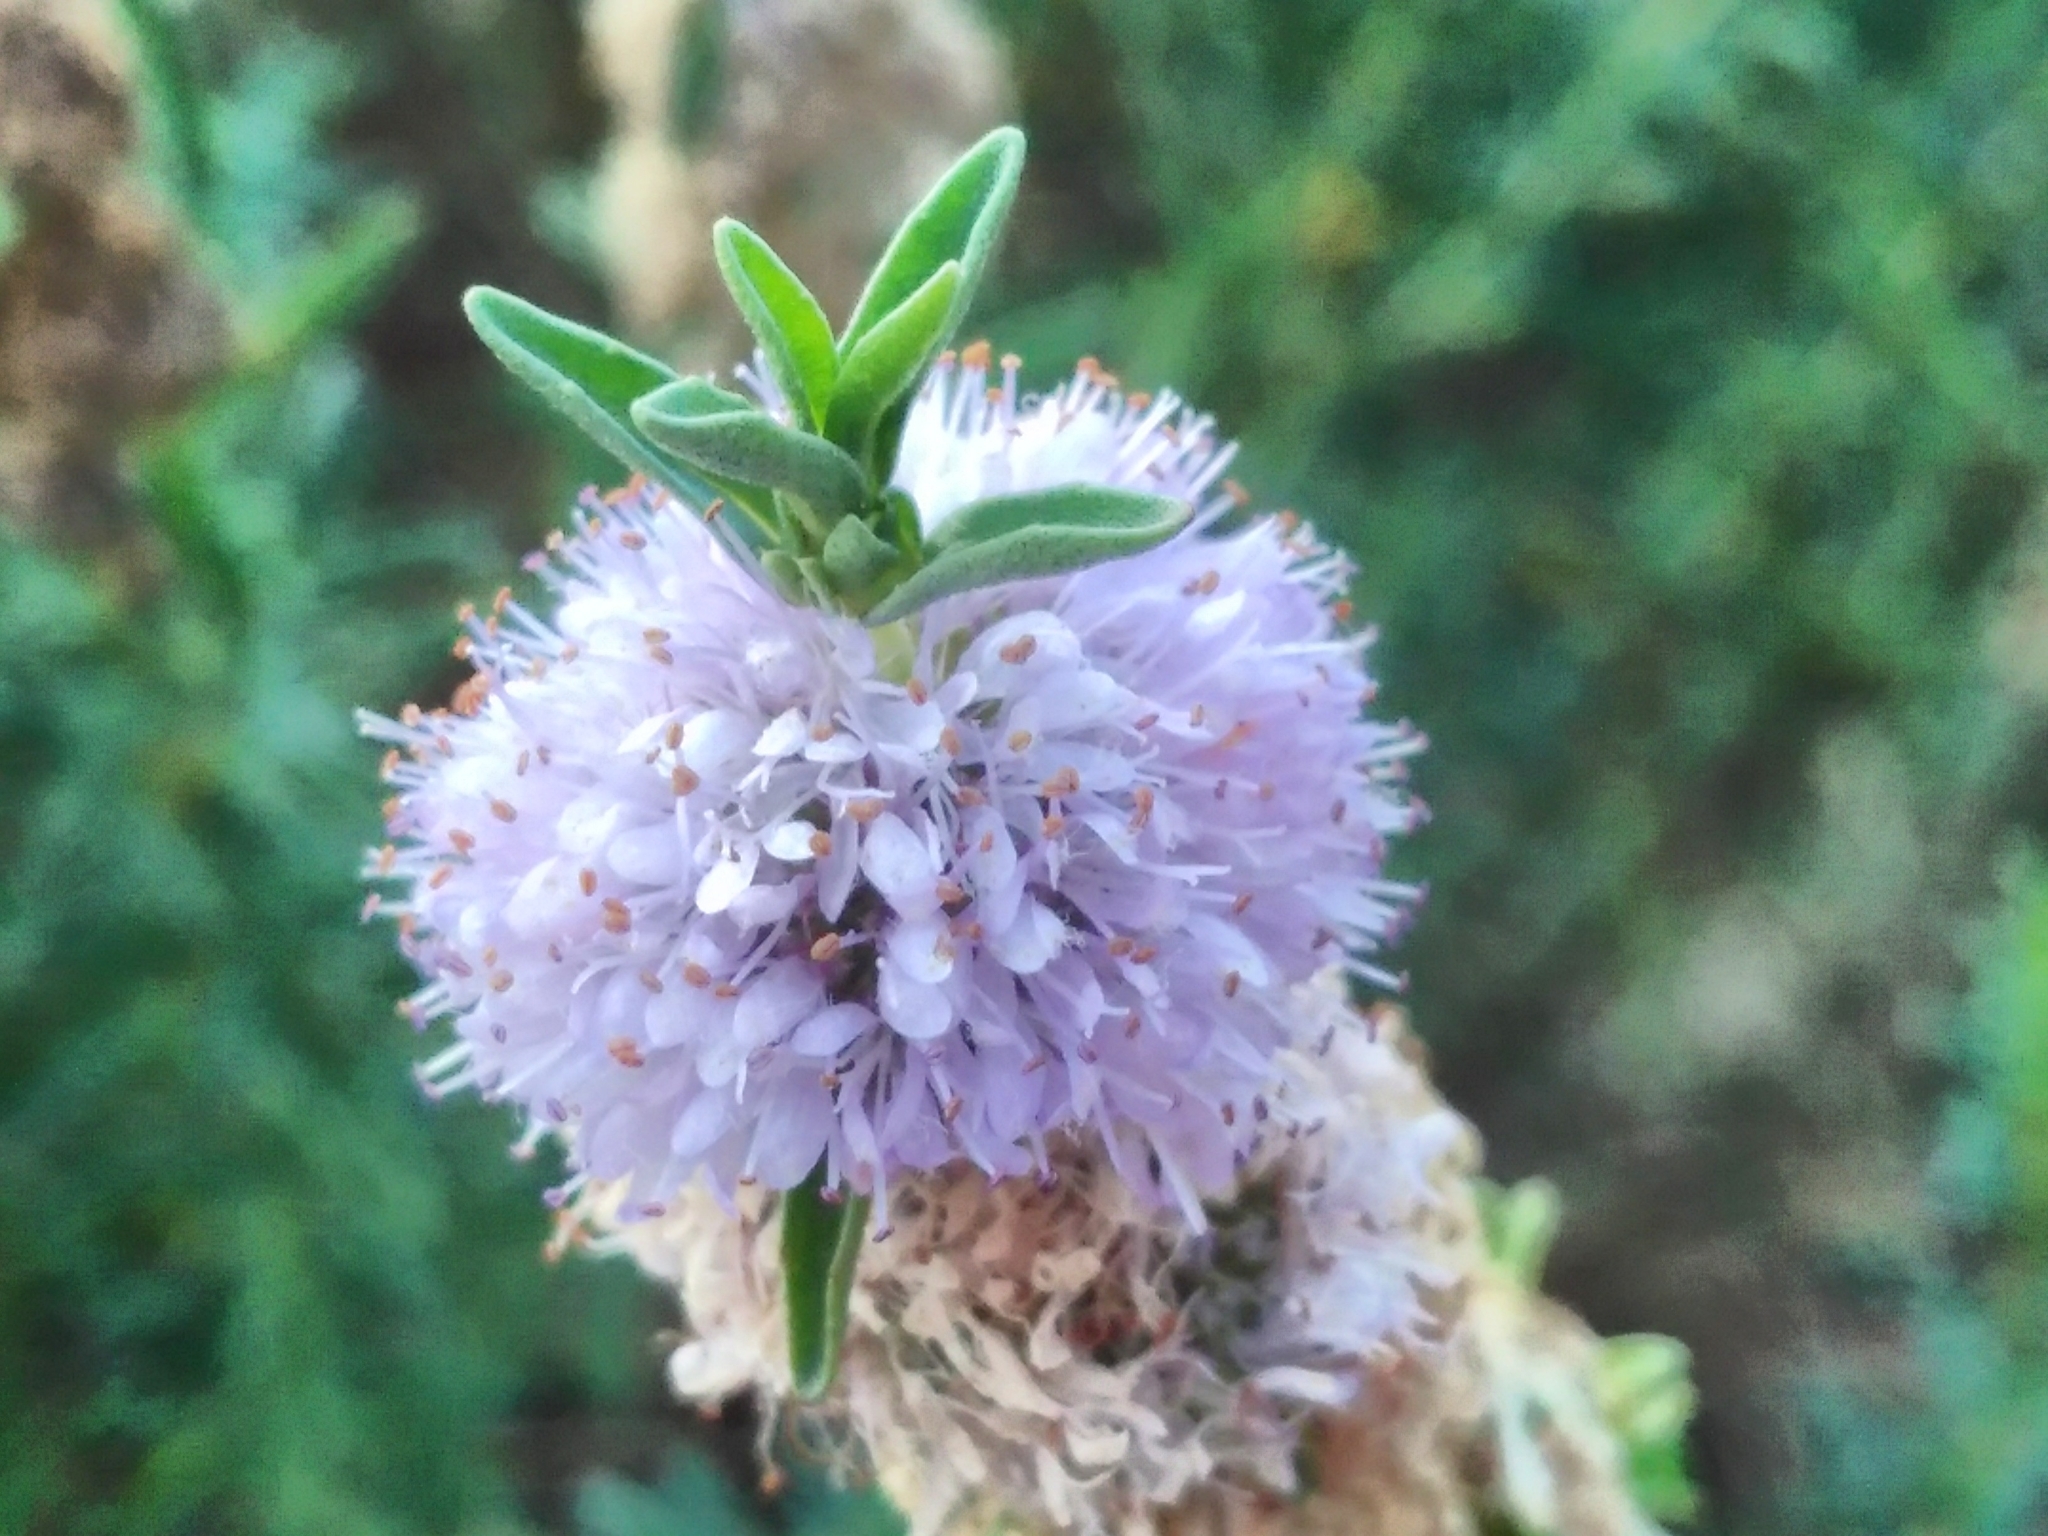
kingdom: Plantae
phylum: Tracheophyta
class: Magnoliopsida
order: Lamiales
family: Lamiaceae
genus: Mentha
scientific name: Mentha cervina
